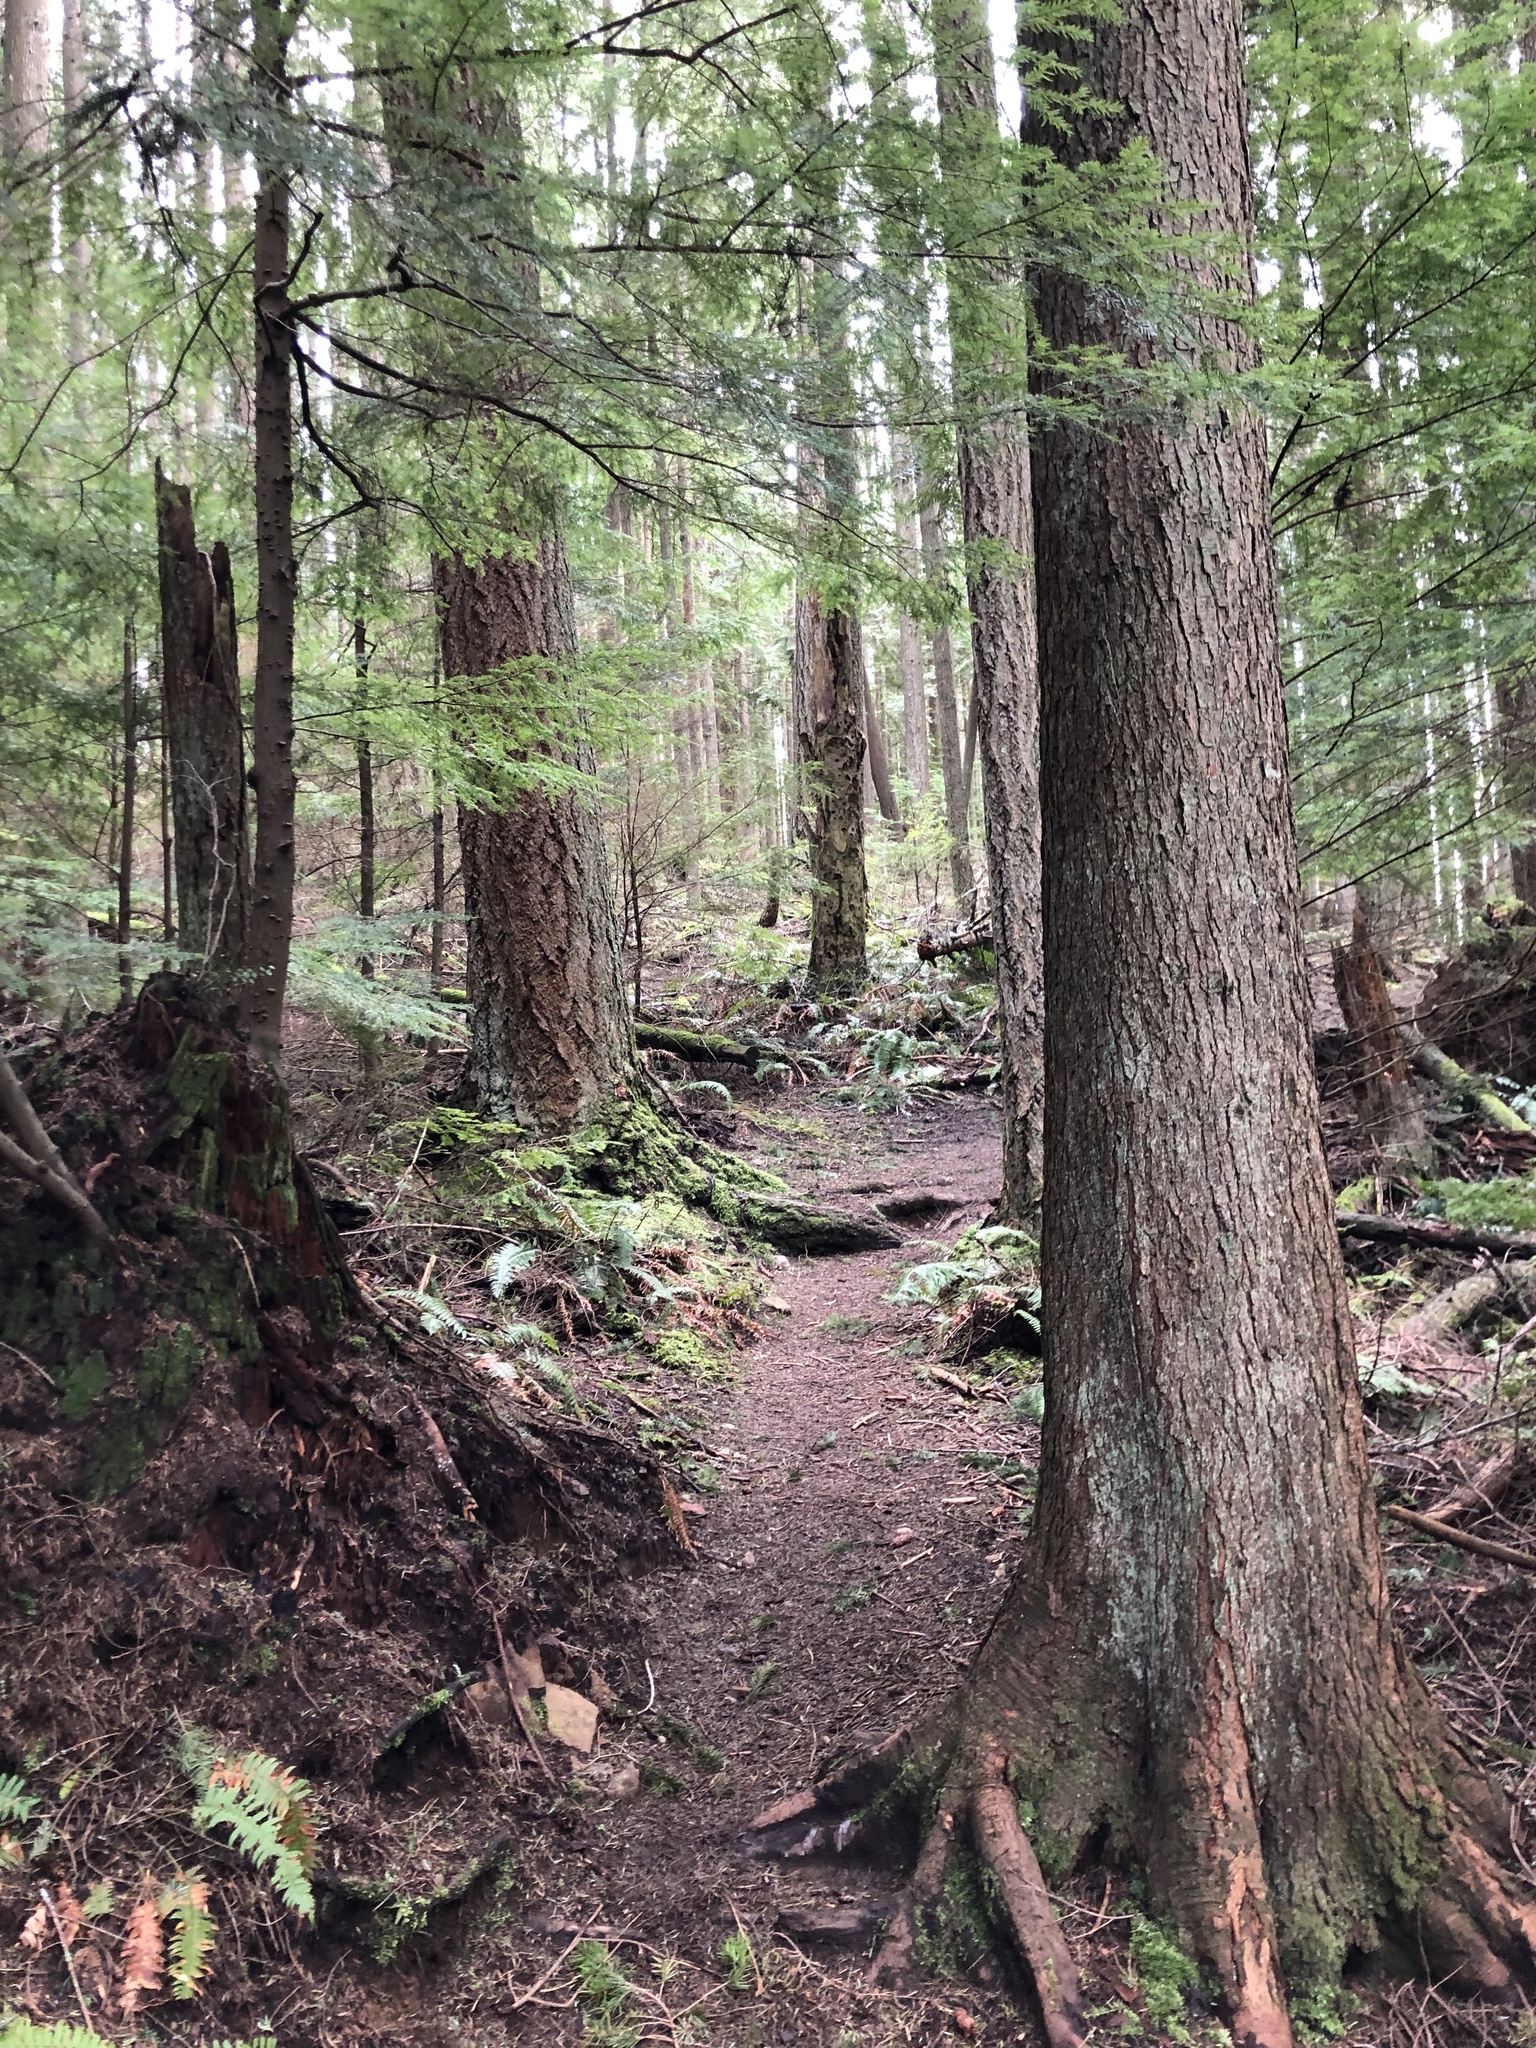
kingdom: Plantae
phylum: Tracheophyta
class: Pinopsida
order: Pinales
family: Pinaceae
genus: Tsuga
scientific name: Tsuga heterophylla
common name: Western hemlock
